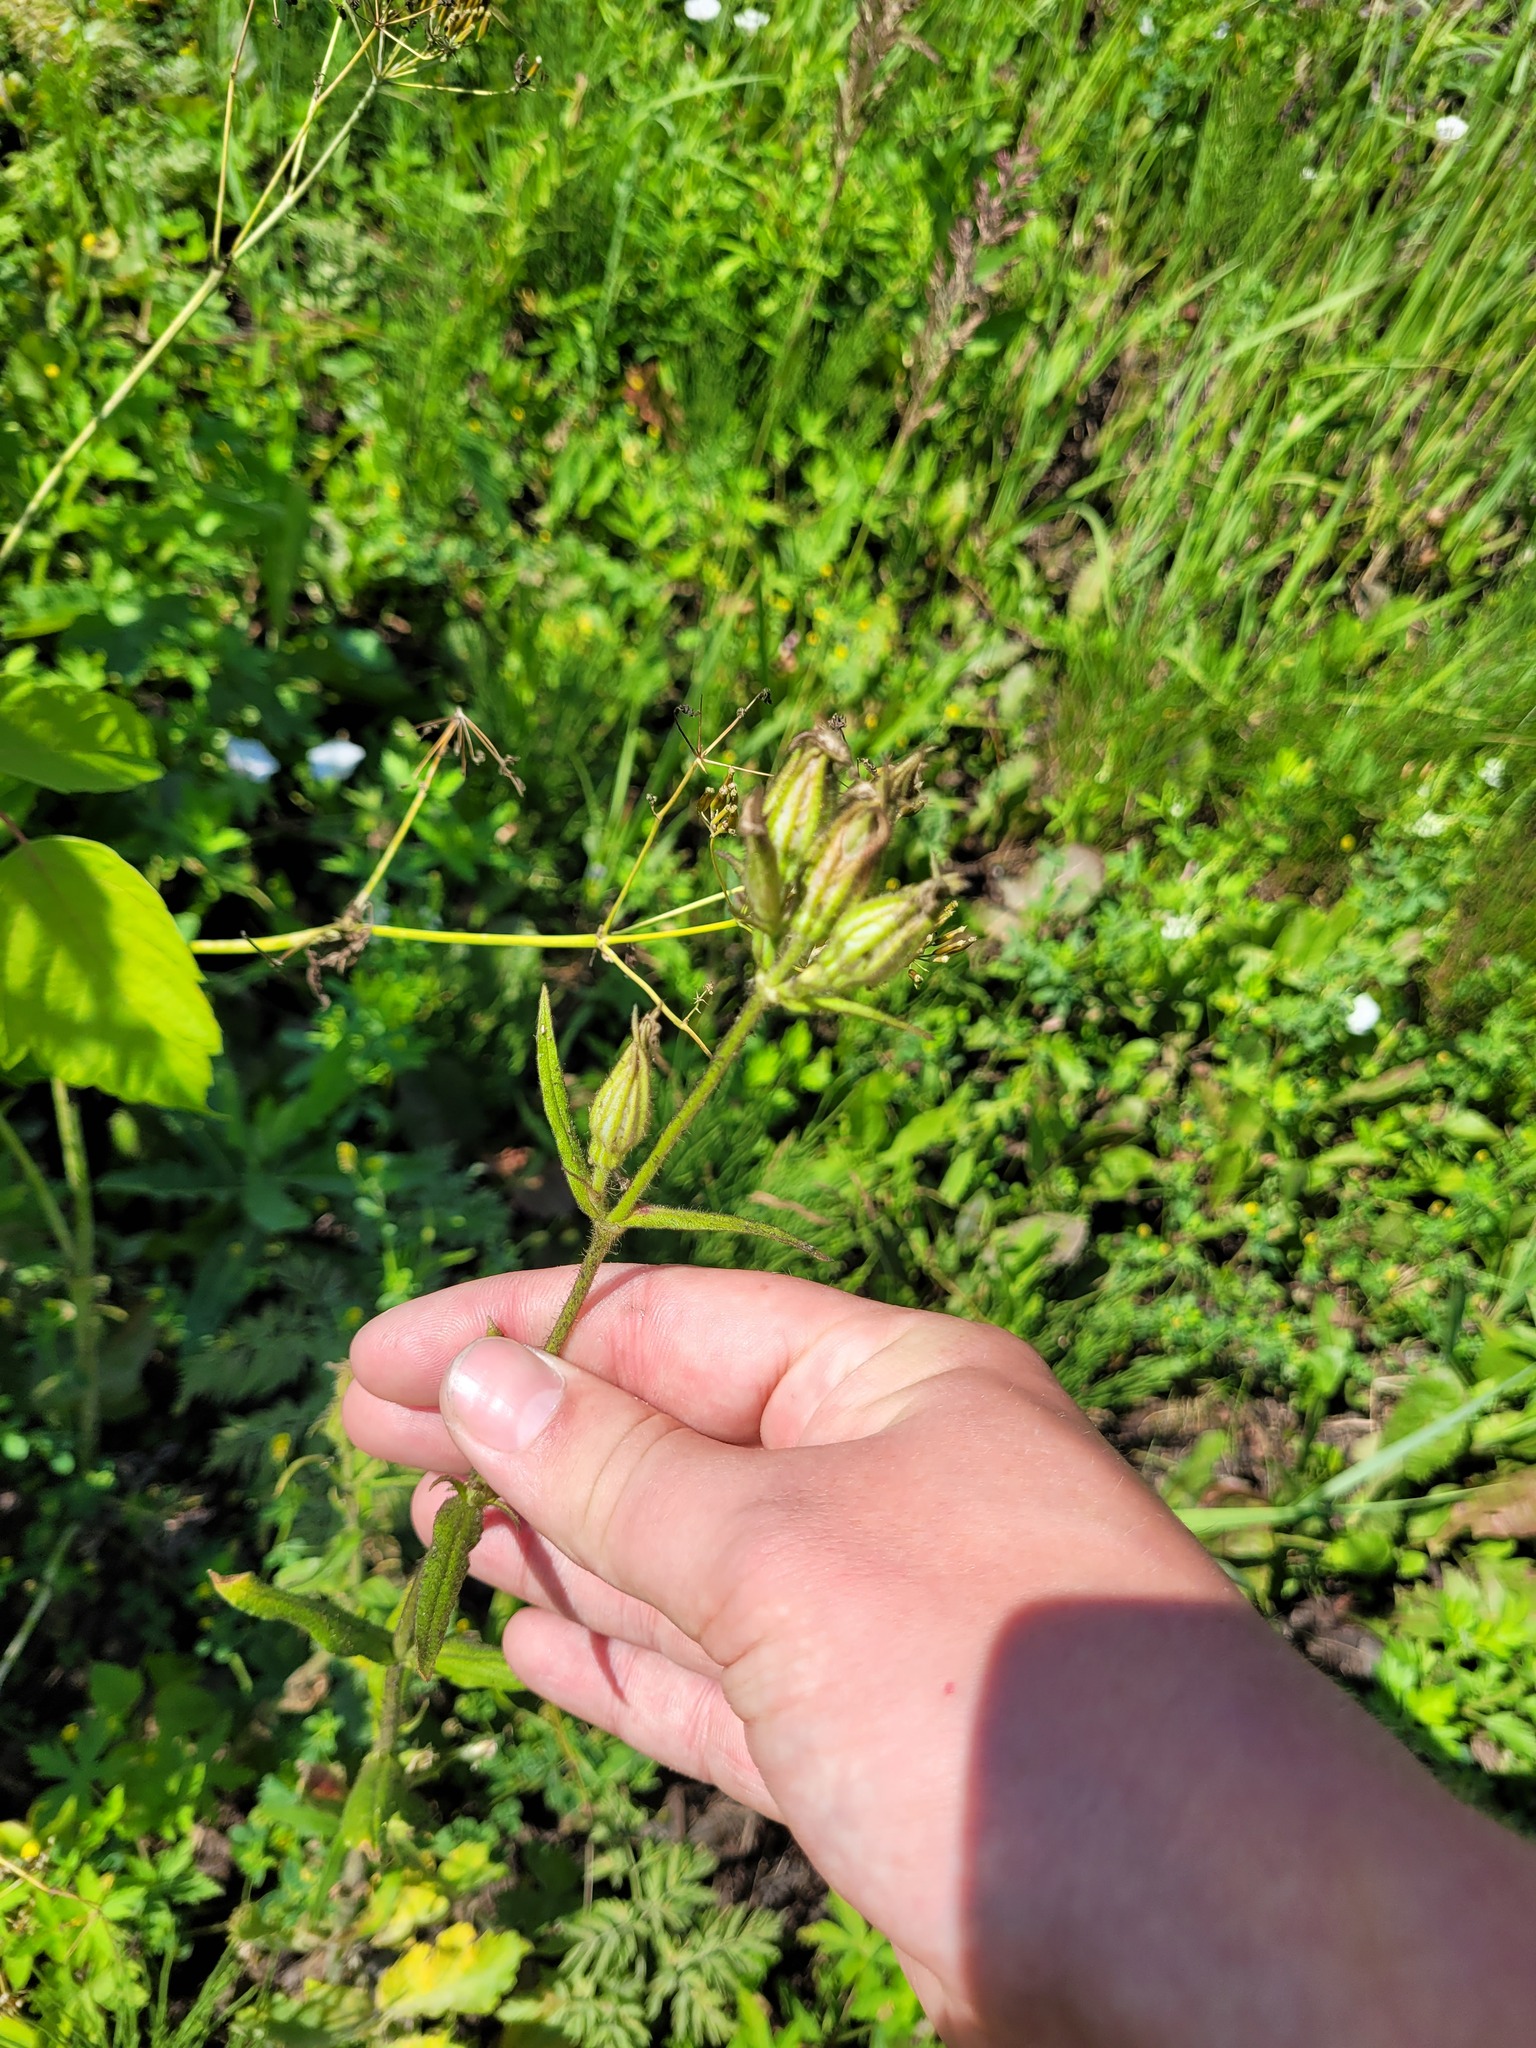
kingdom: Plantae
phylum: Tracheophyta
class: Magnoliopsida
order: Caryophyllales
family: Caryophyllaceae
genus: Silene
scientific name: Silene noctiflora
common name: Night-flowering catchfly
